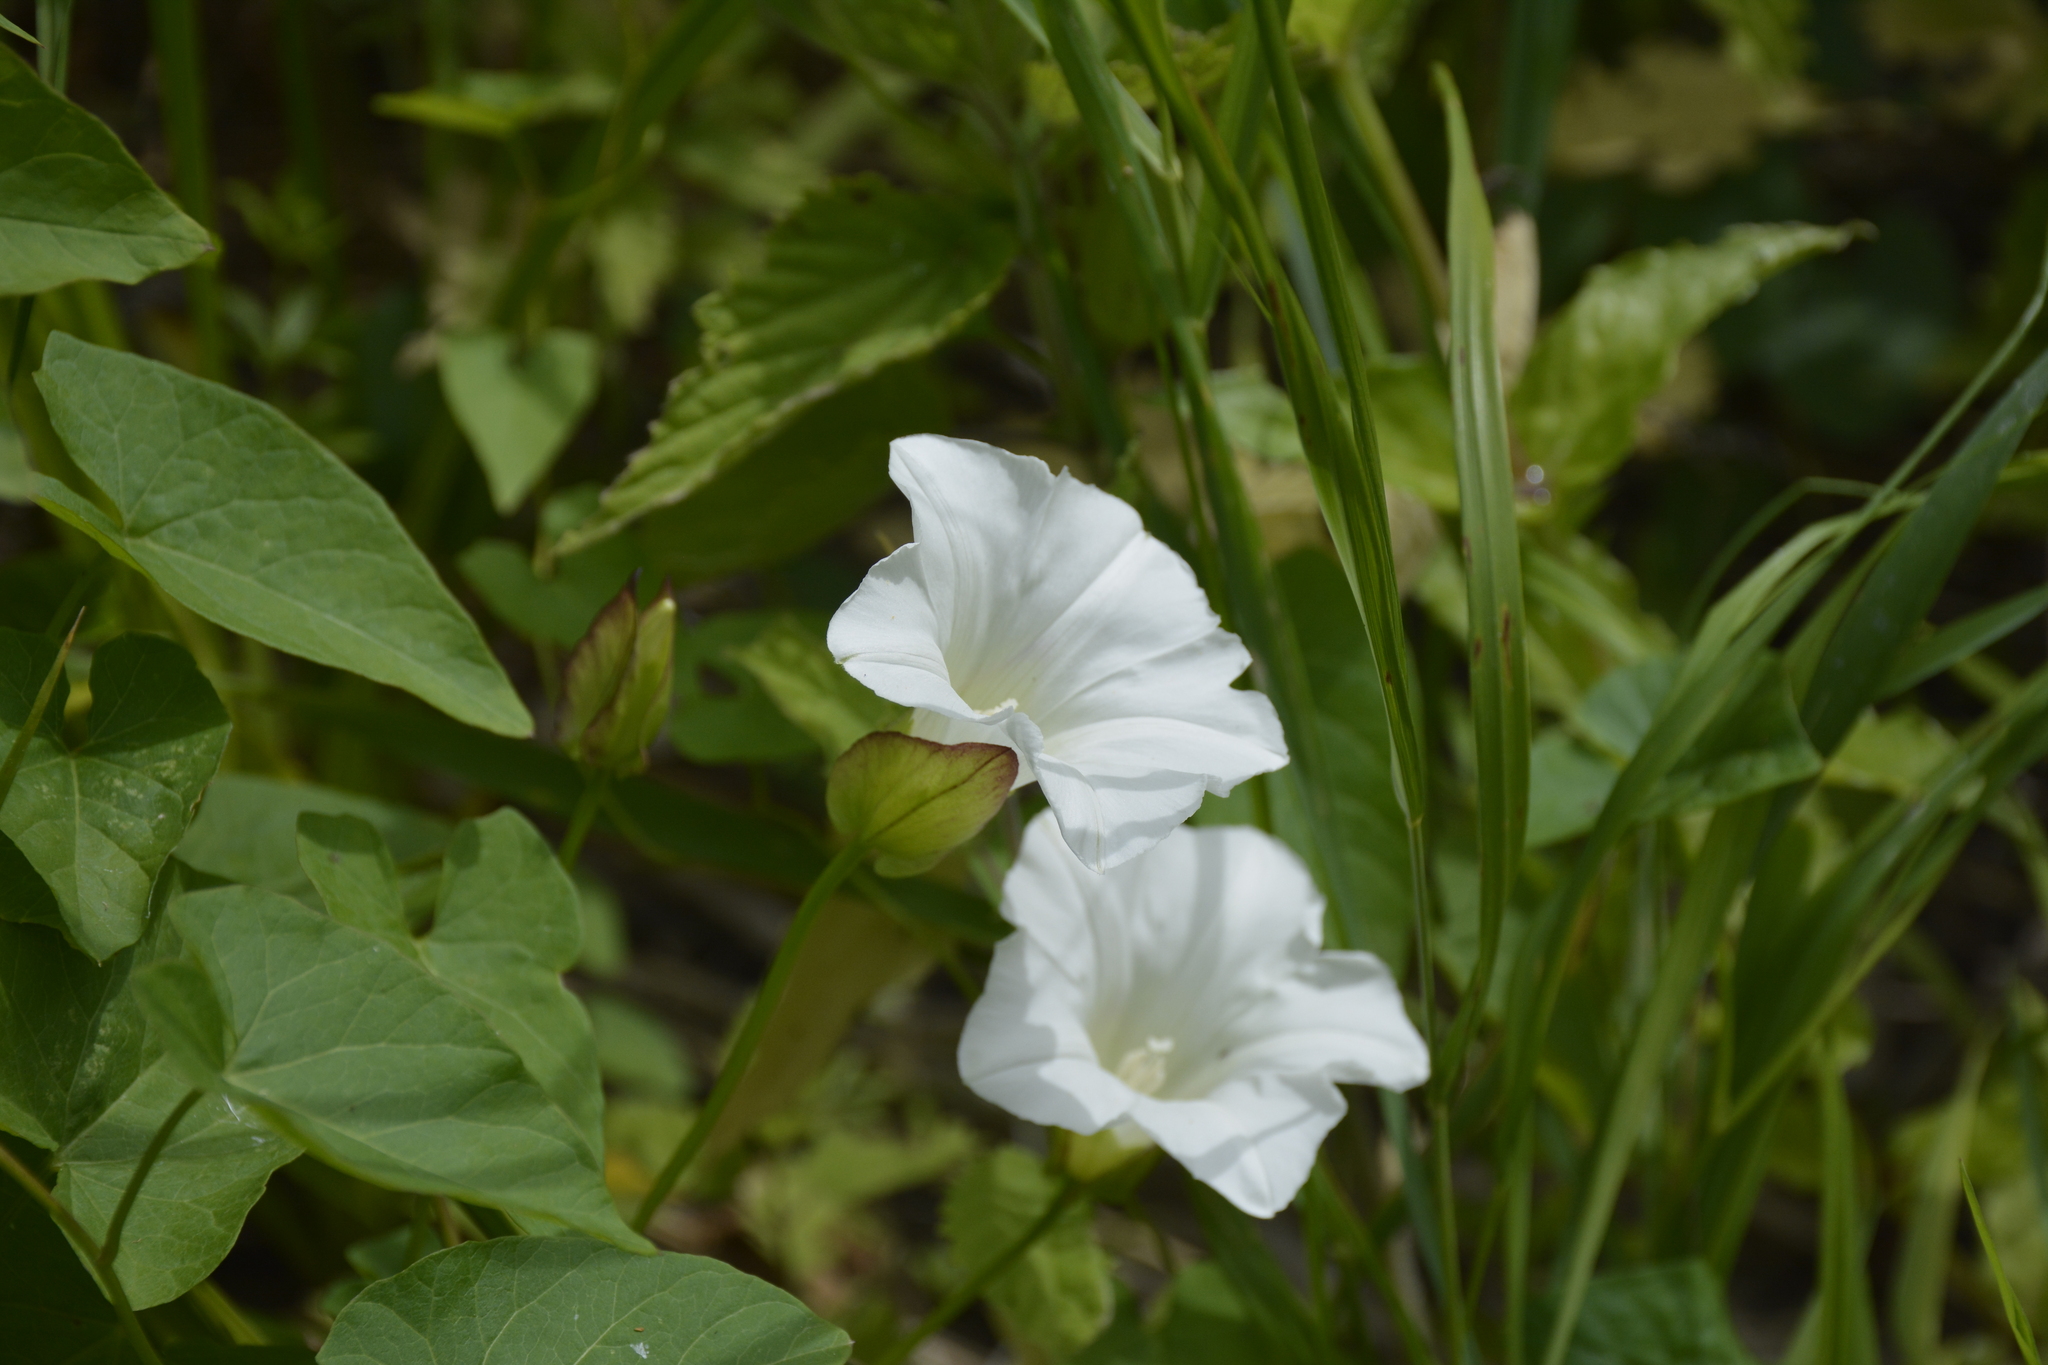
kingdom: Plantae
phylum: Tracheophyta
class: Magnoliopsida
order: Solanales
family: Convolvulaceae
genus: Calystegia
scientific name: Calystegia sepium
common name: Hedge bindweed
